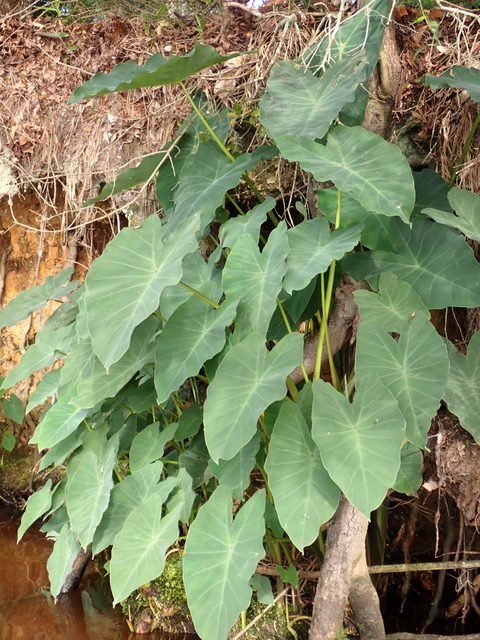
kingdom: Plantae
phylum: Tracheophyta
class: Liliopsida
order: Alismatales
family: Araceae
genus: Colocasia
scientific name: Colocasia esculenta
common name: Taro
